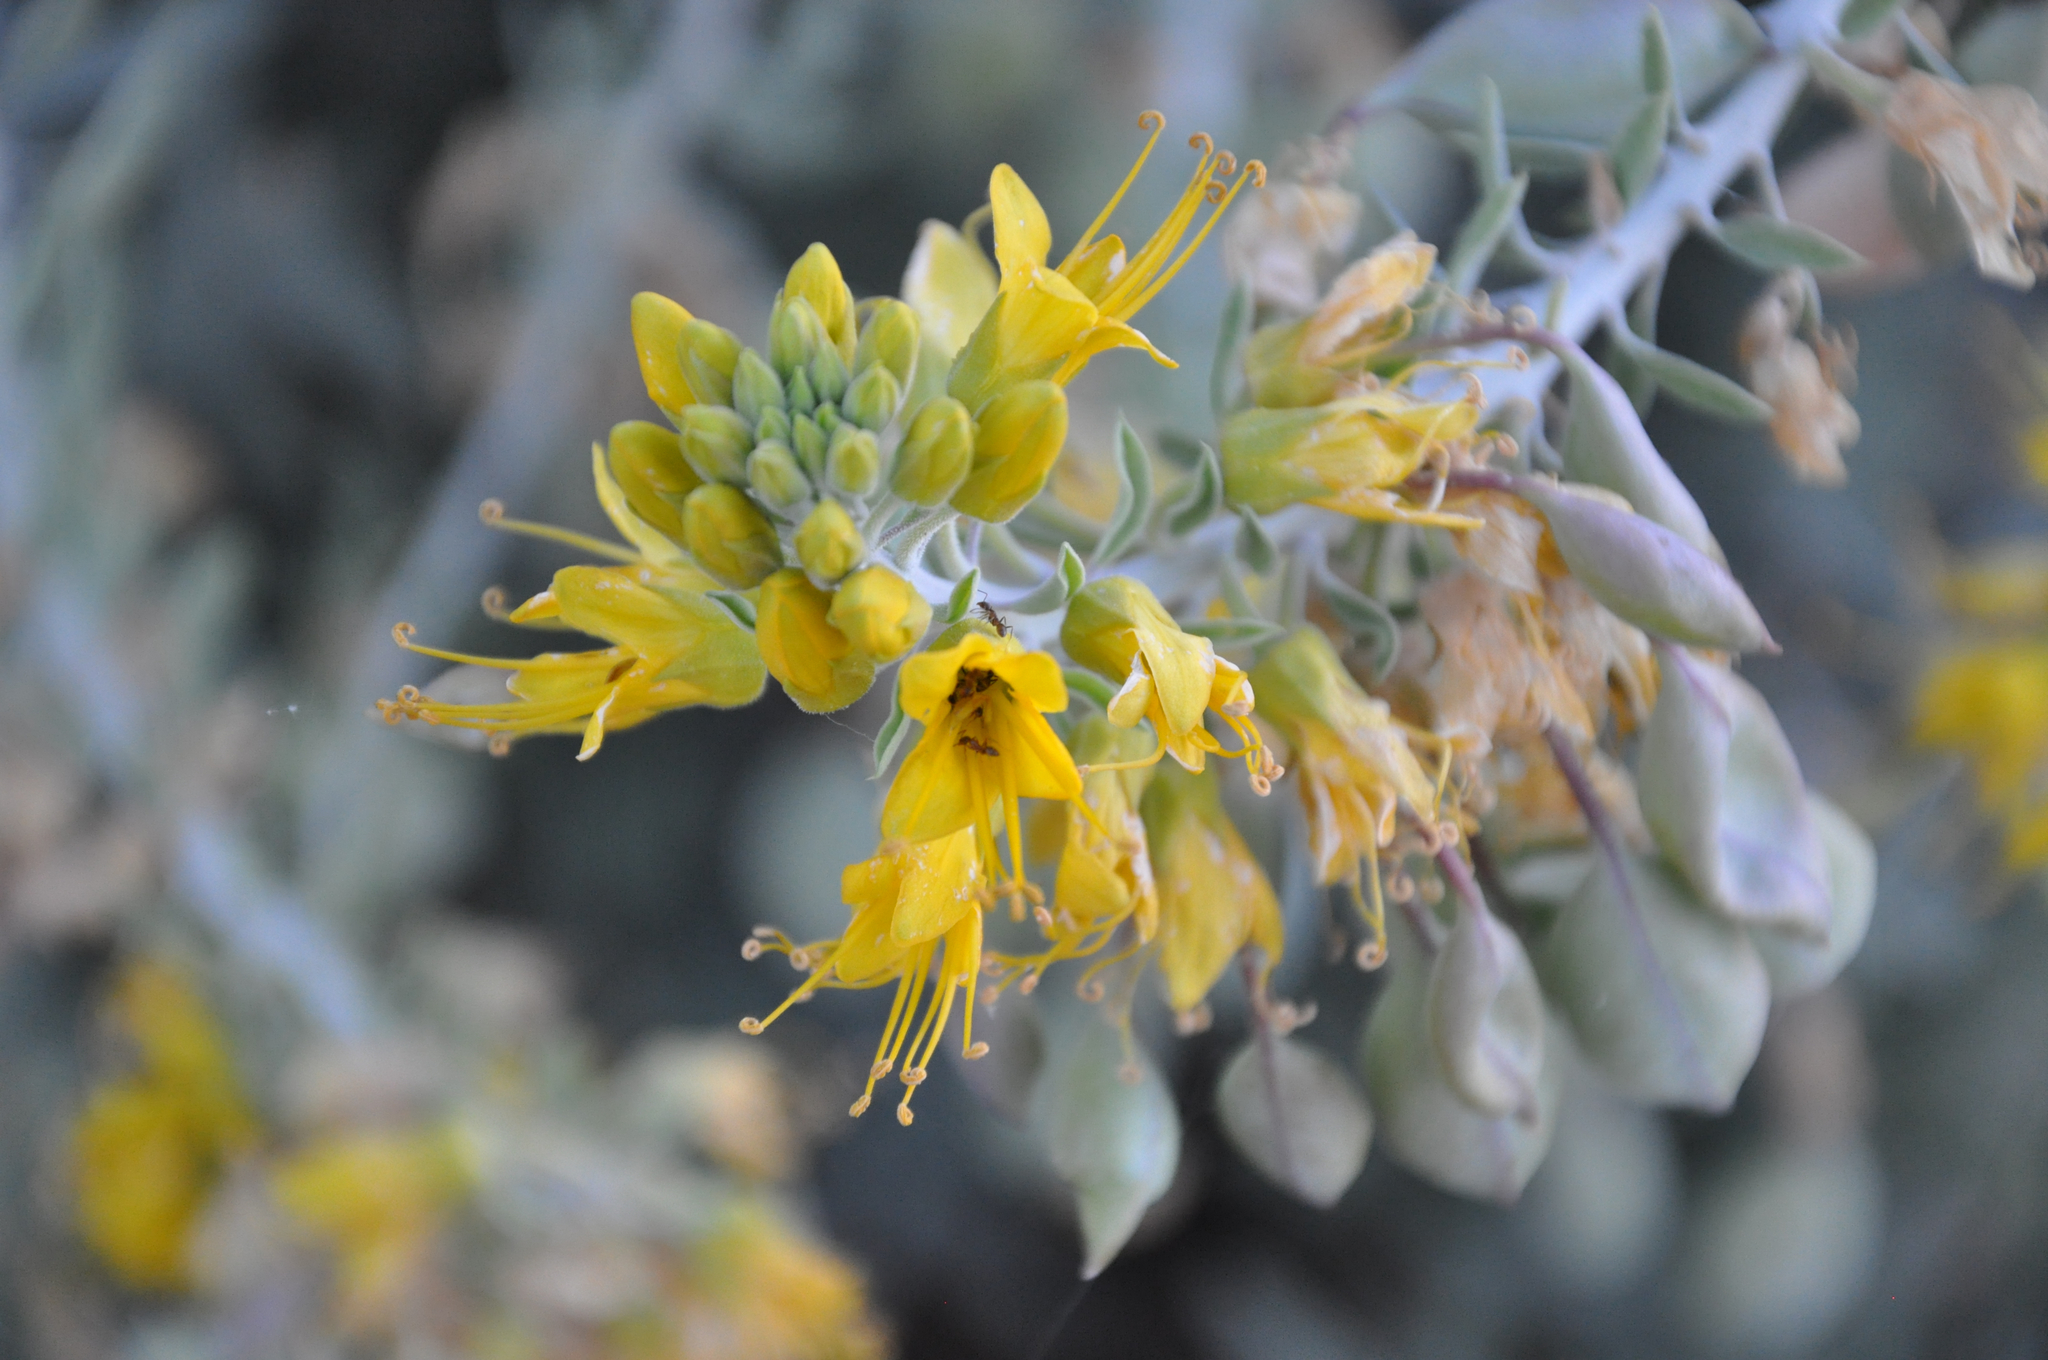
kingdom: Plantae
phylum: Tracheophyta
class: Magnoliopsida
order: Brassicales
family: Cleomaceae
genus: Cleomella
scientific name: Cleomella arborea
